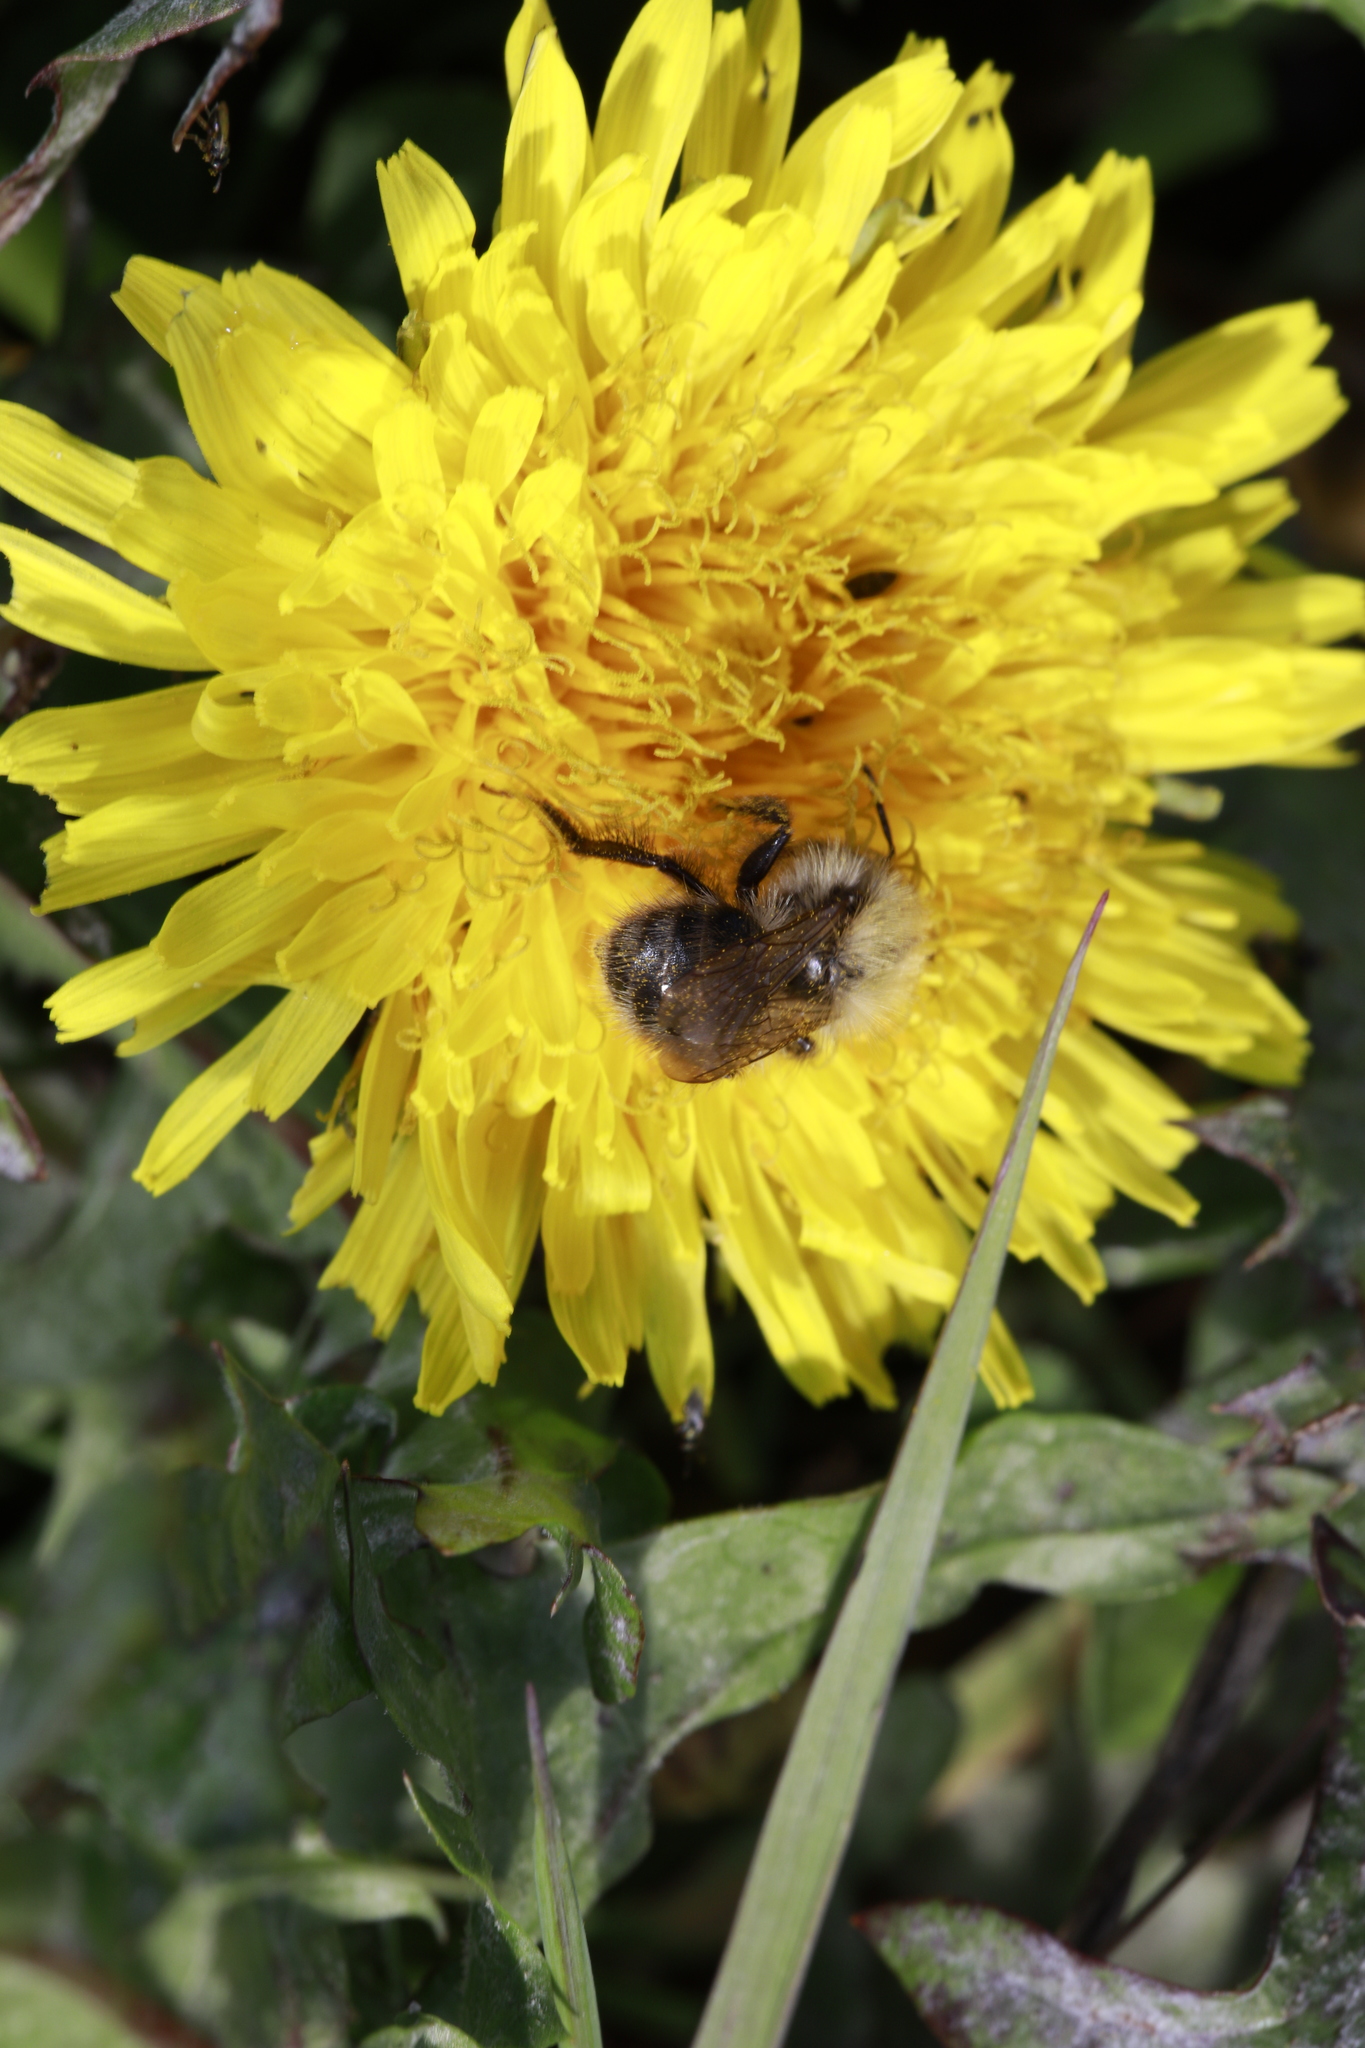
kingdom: Animalia
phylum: Arthropoda
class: Insecta
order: Hymenoptera
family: Apidae
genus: Bombus
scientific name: Bombus pascuorum
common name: Common carder bee
